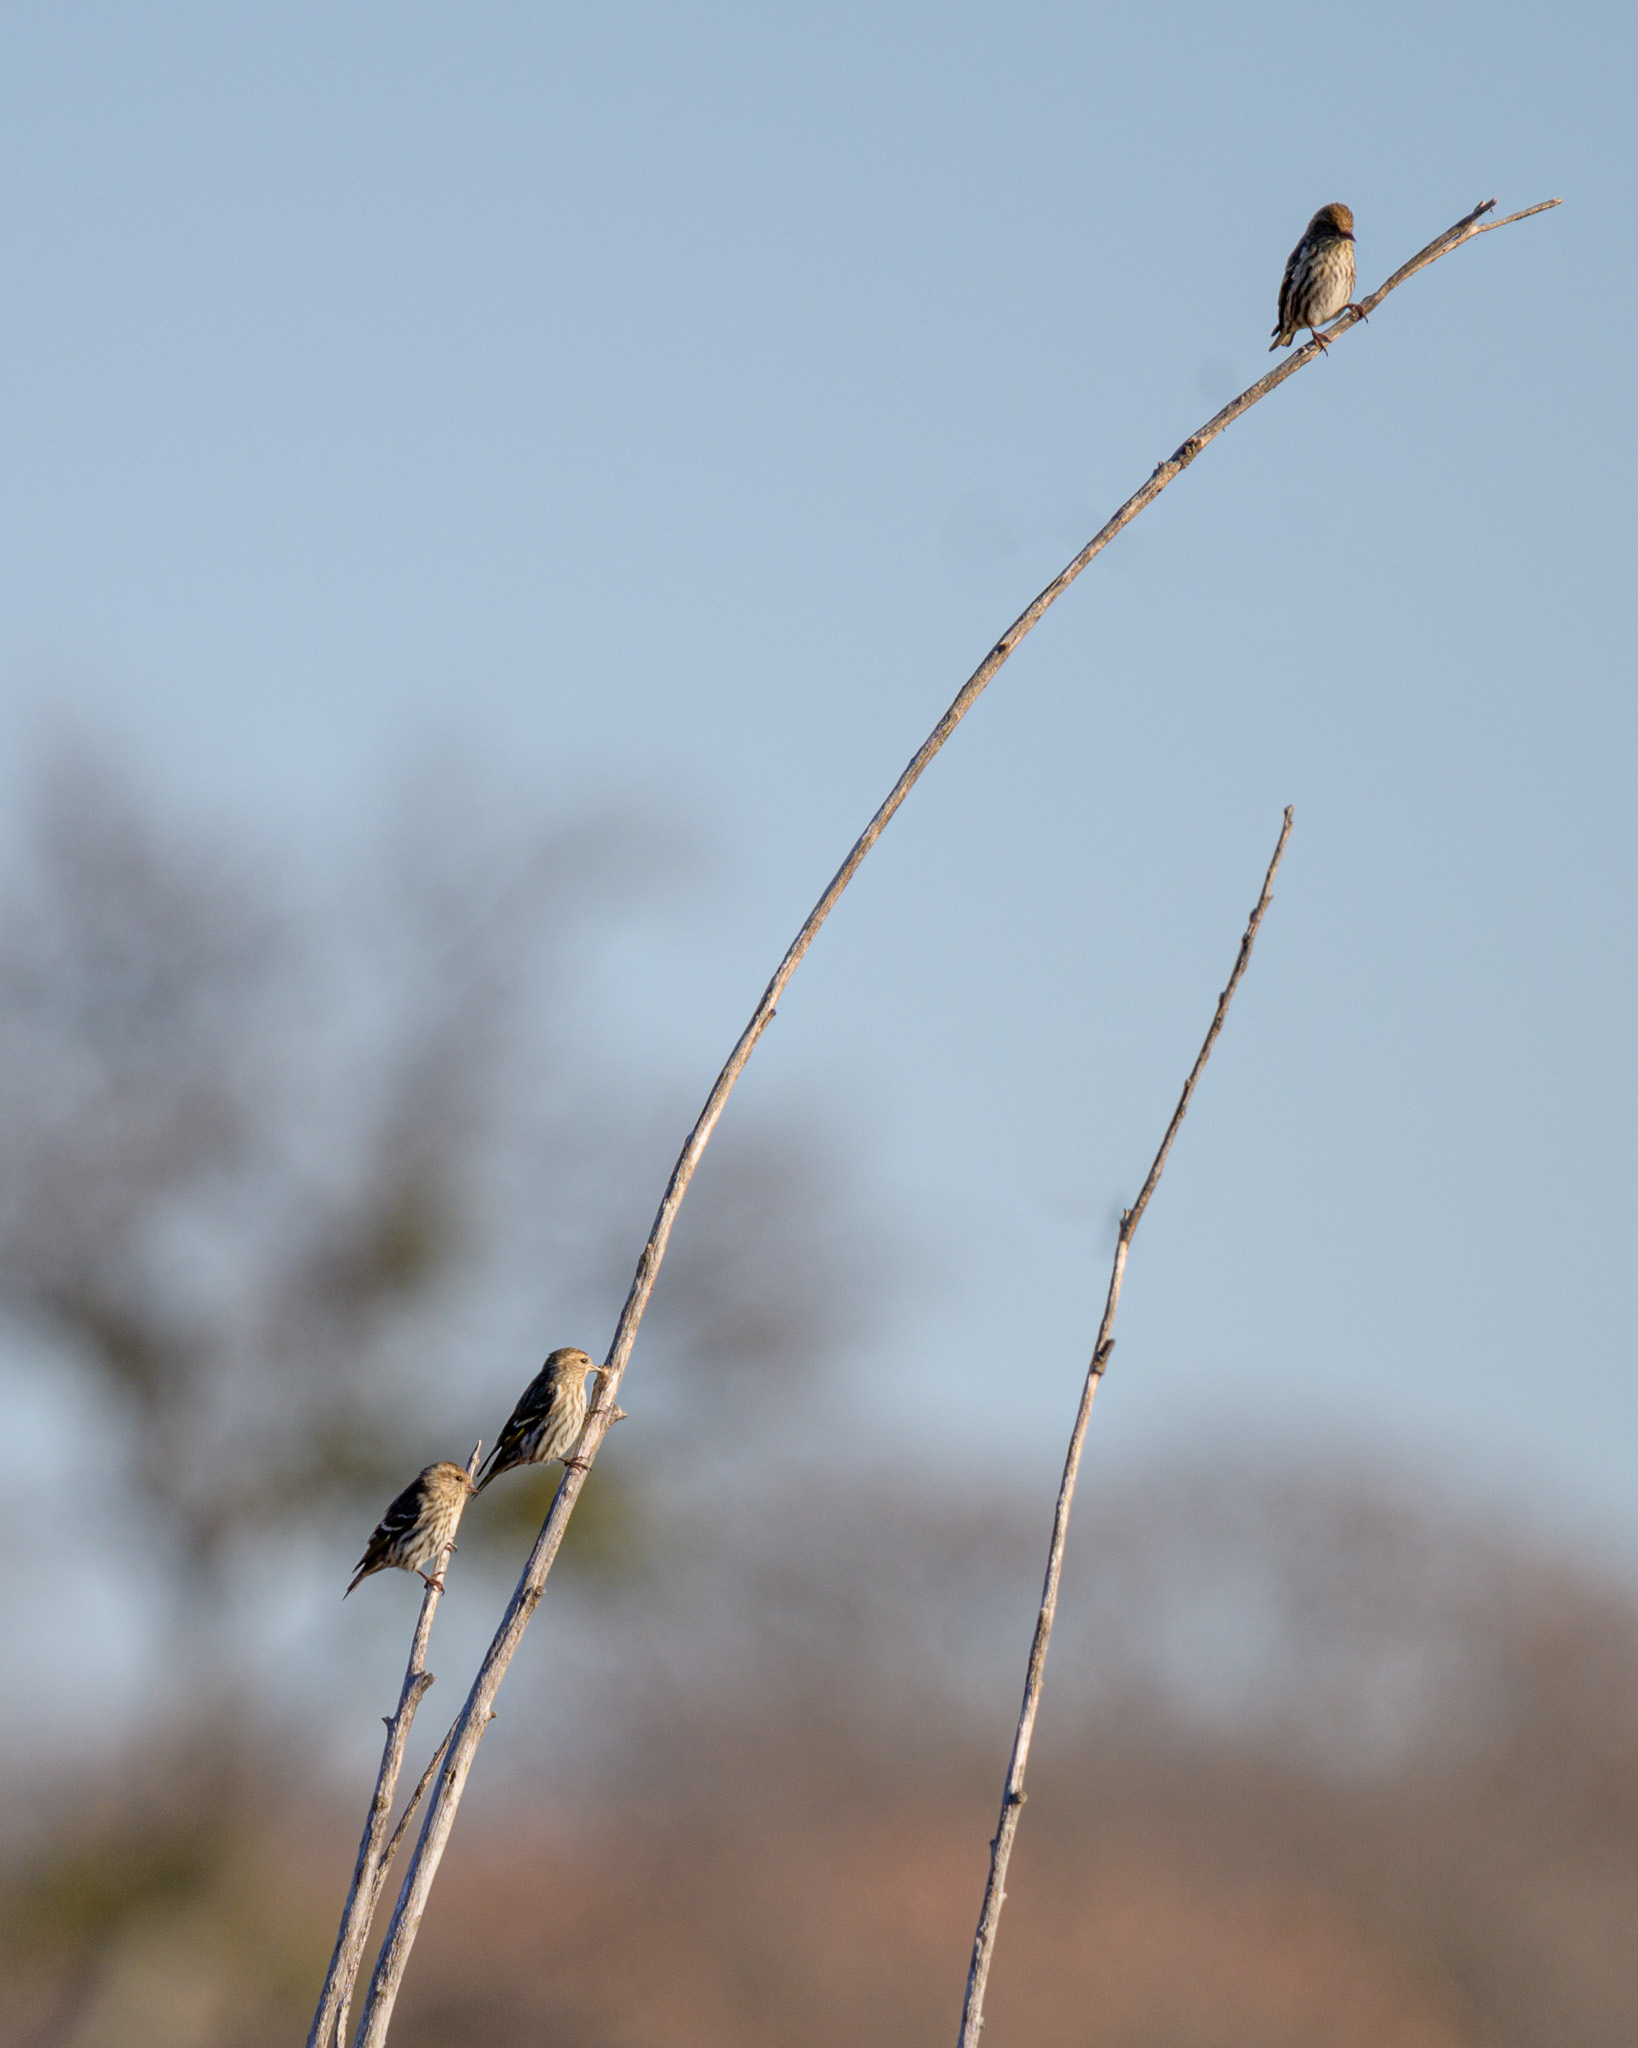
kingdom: Animalia
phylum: Chordata
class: Aves
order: Passeriformes
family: Fringillidae
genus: Spinus
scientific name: Spinus pinus
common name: Pine siskin
